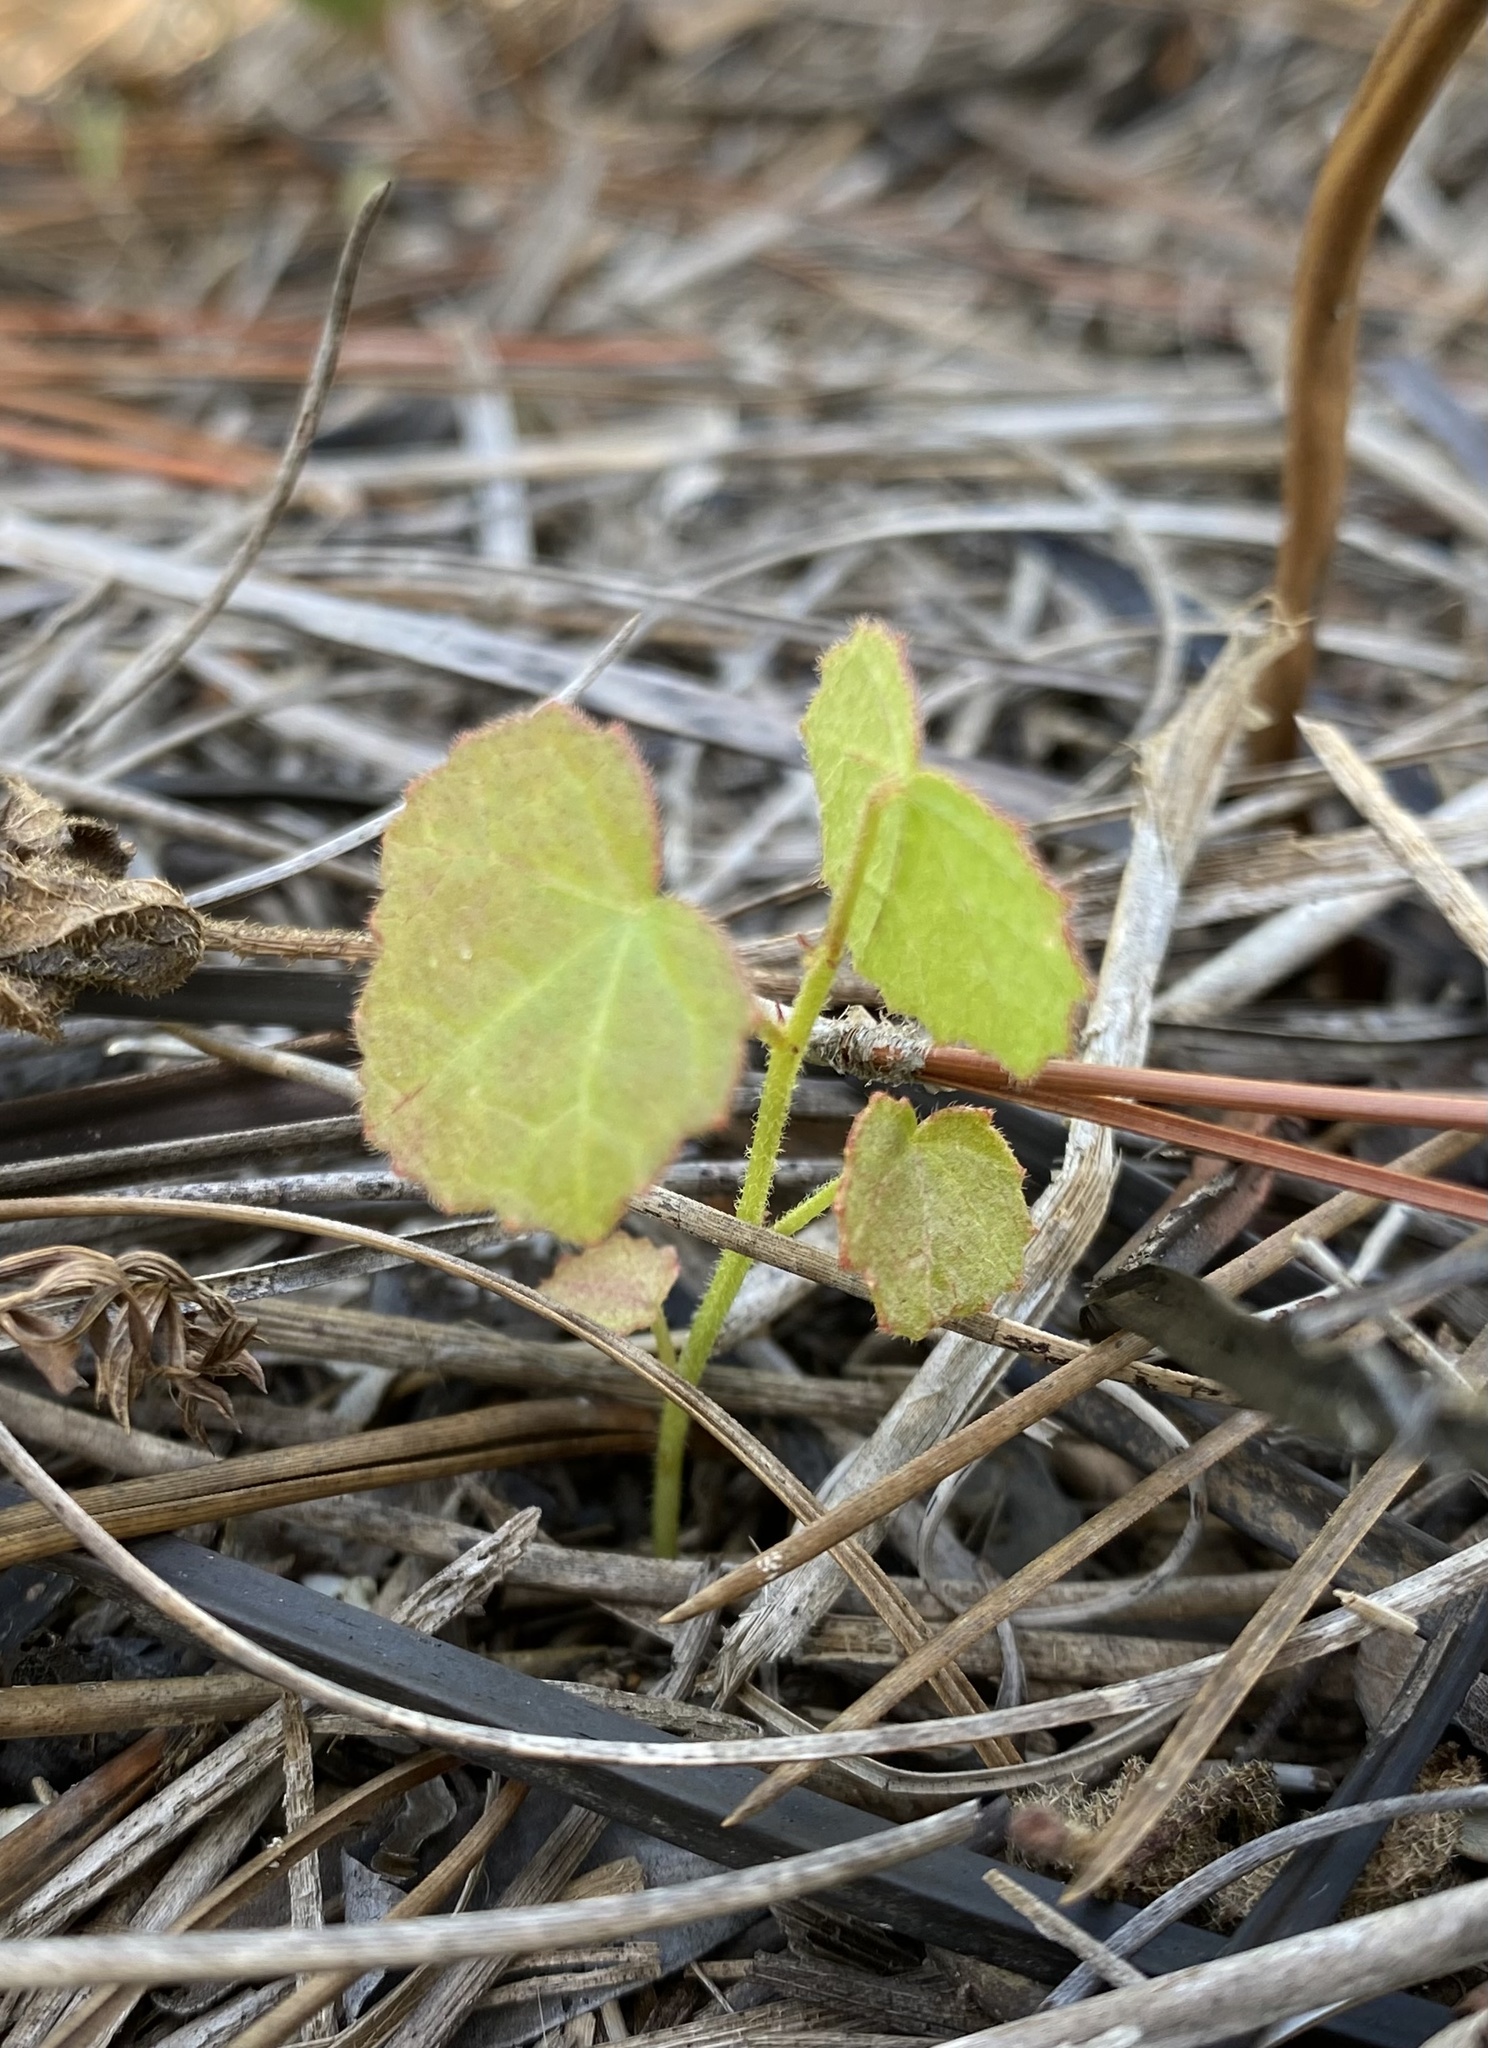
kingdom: Plantae
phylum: Tracheophyta
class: Magnoliopsida
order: Malvales
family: Malvaceae
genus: Hibiscus
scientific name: Hibiscus aculeatus
